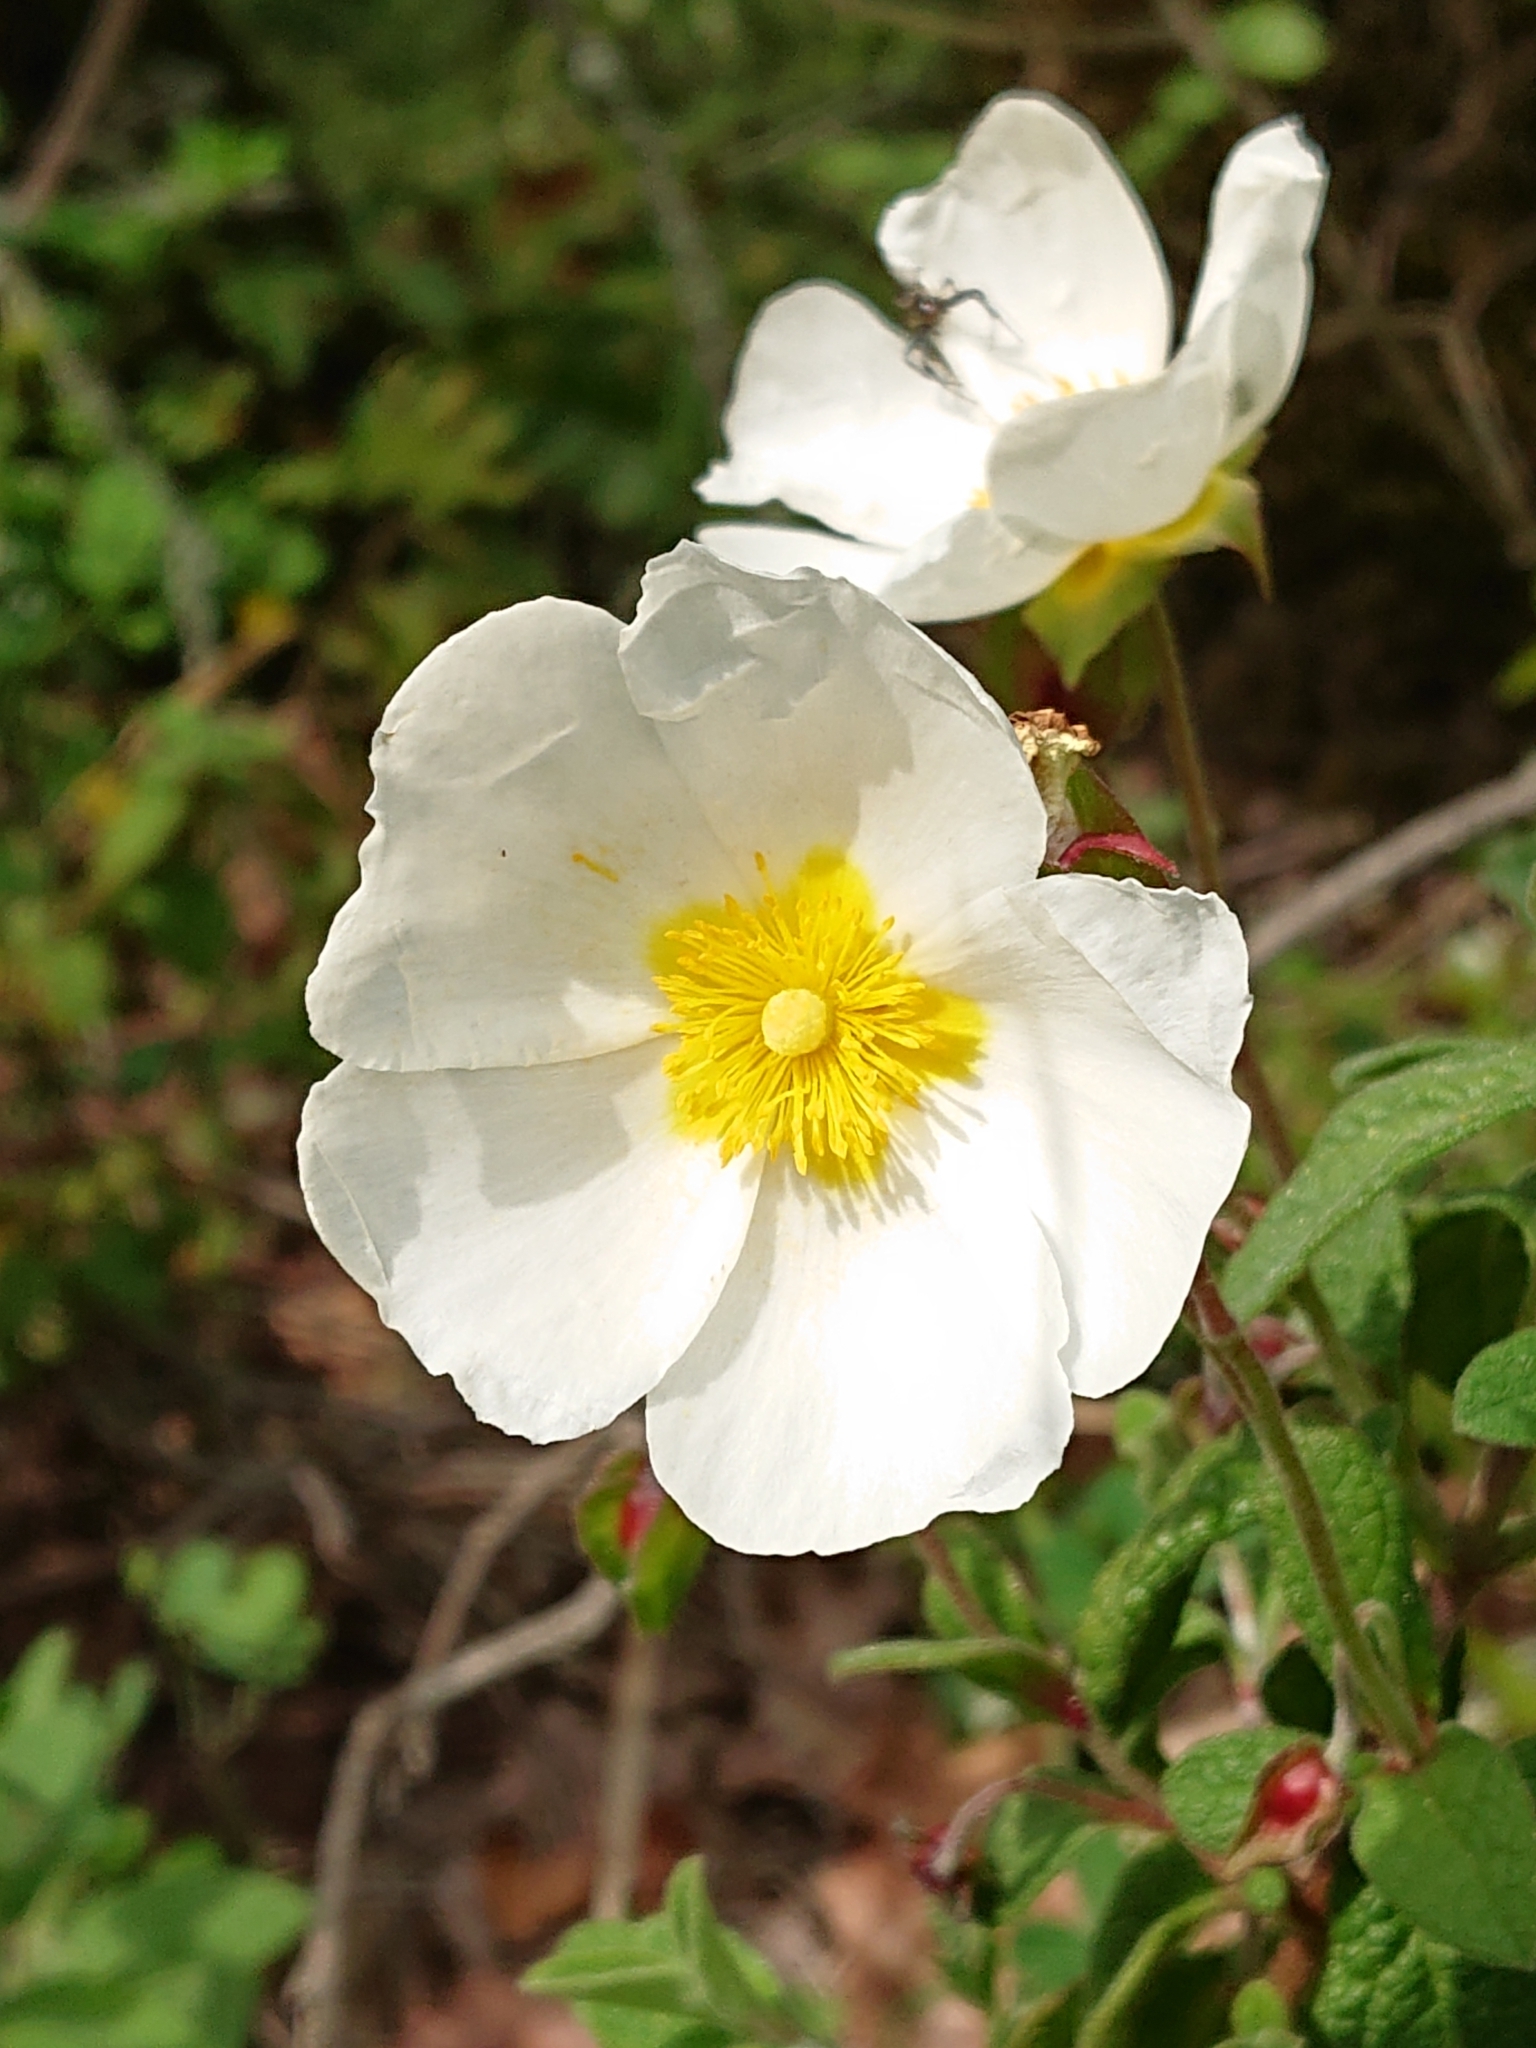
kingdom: Plantae
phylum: Tracheophyta
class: Magnoliopsida
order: Malvales
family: Cistaceae
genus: Cistus
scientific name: Cistus salviifolius
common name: Salvia cistus
